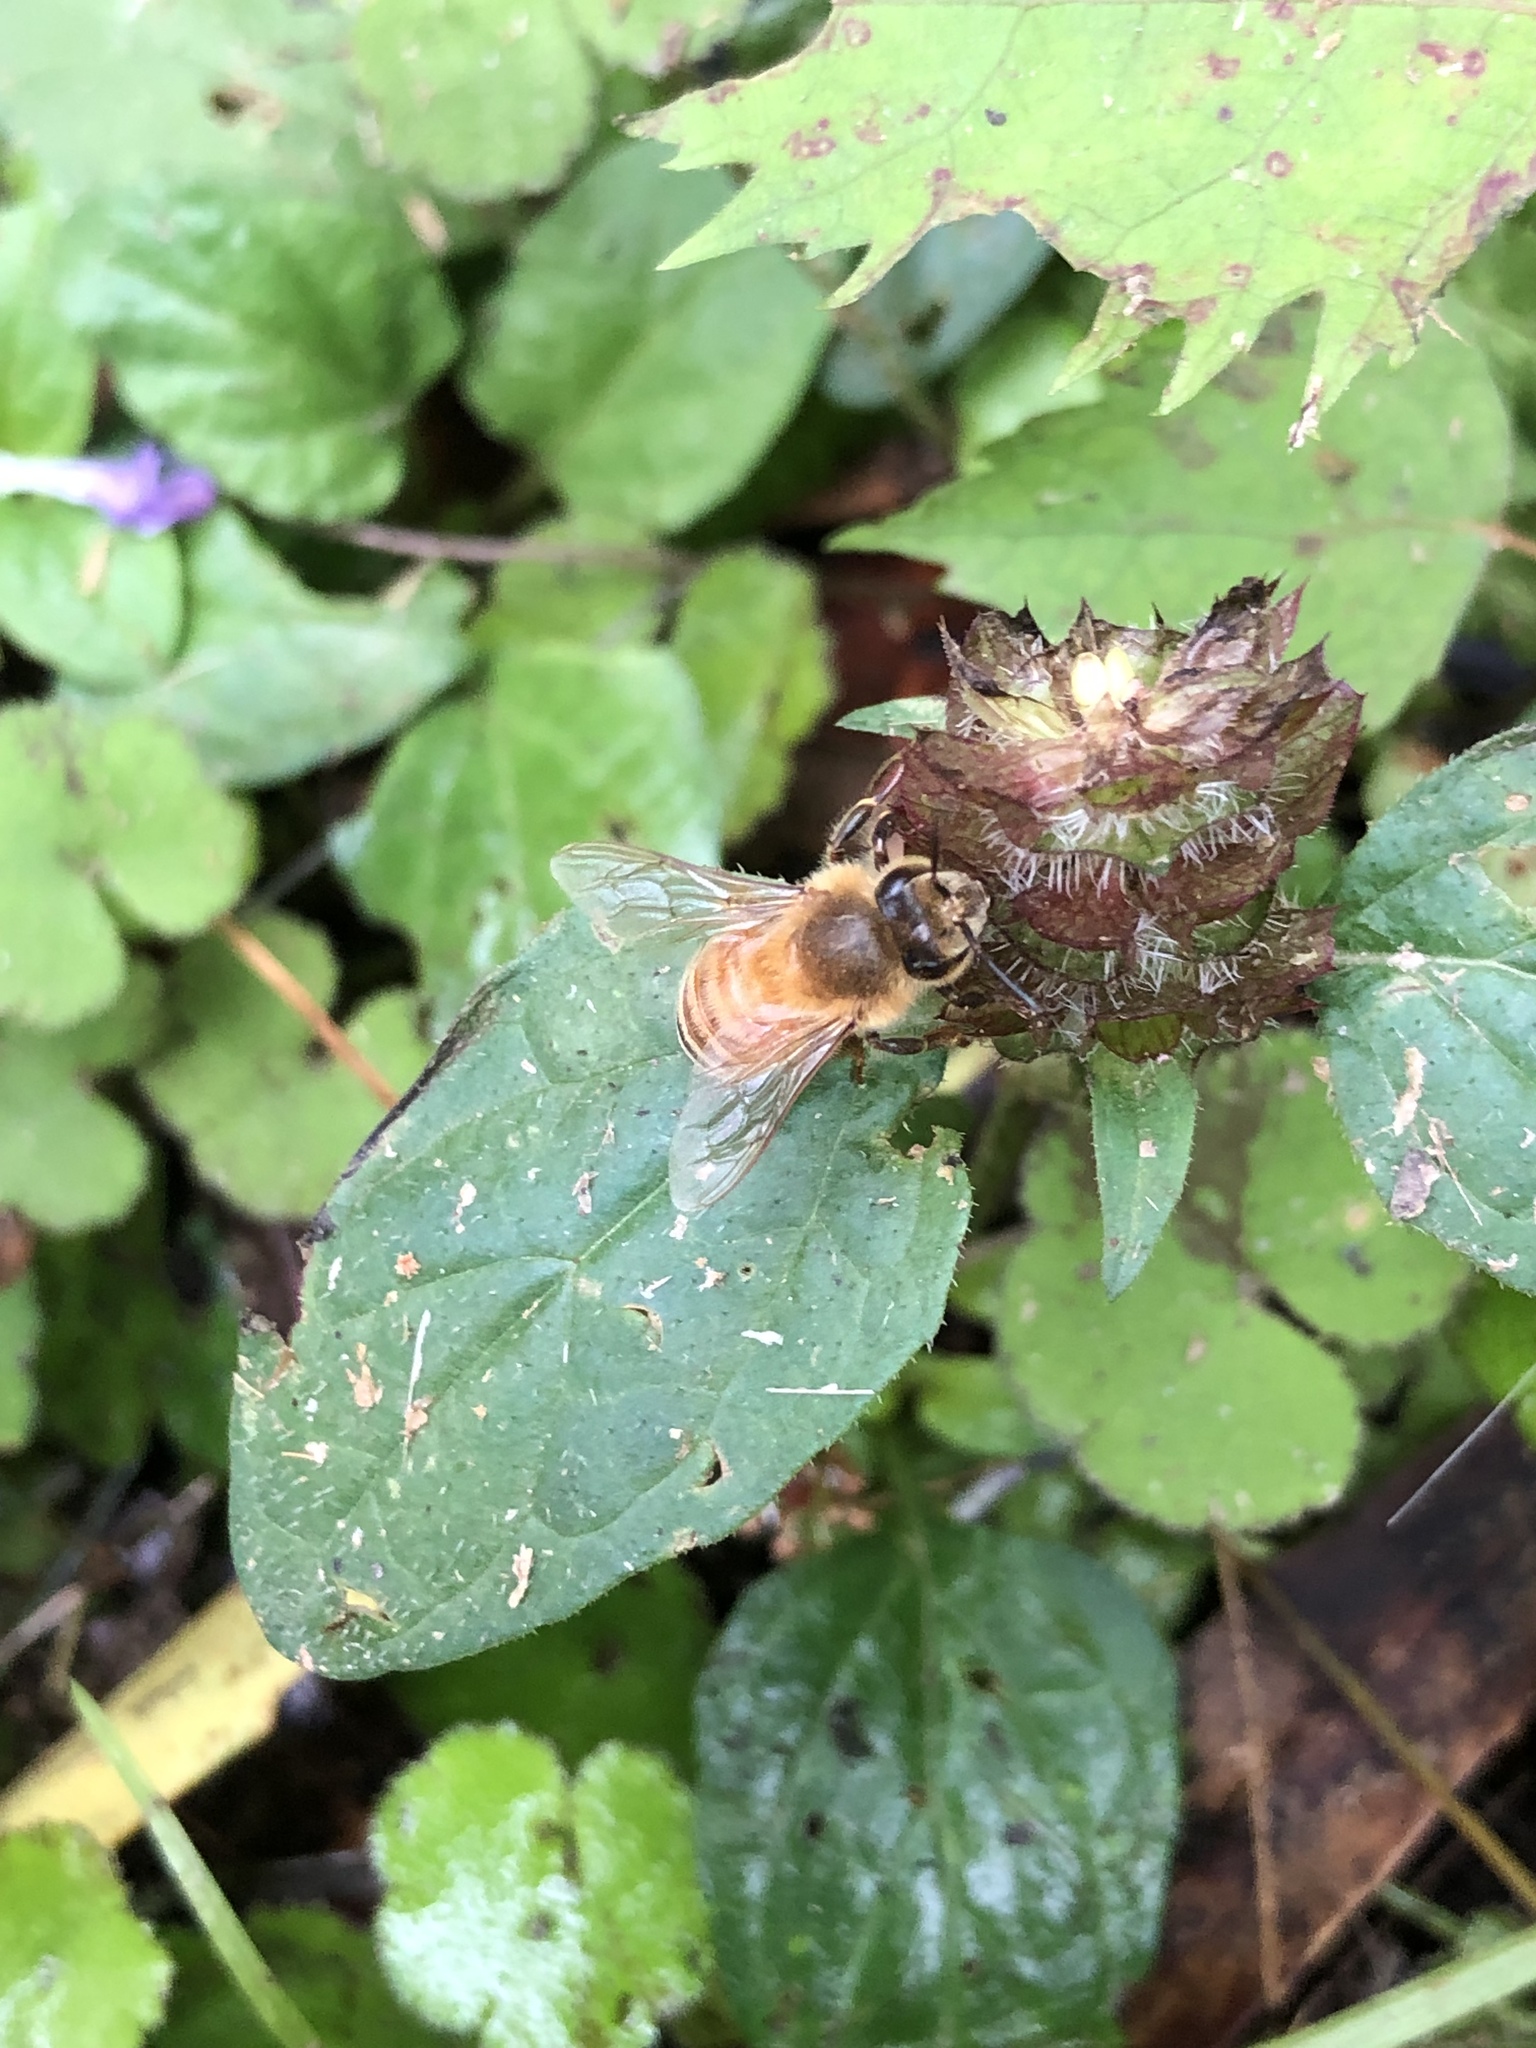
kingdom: Animalia
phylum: Arthropoda
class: Insecta
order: Hymenoptera
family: Apidae
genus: Apis
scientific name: Apis mellifera
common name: Honey bee
